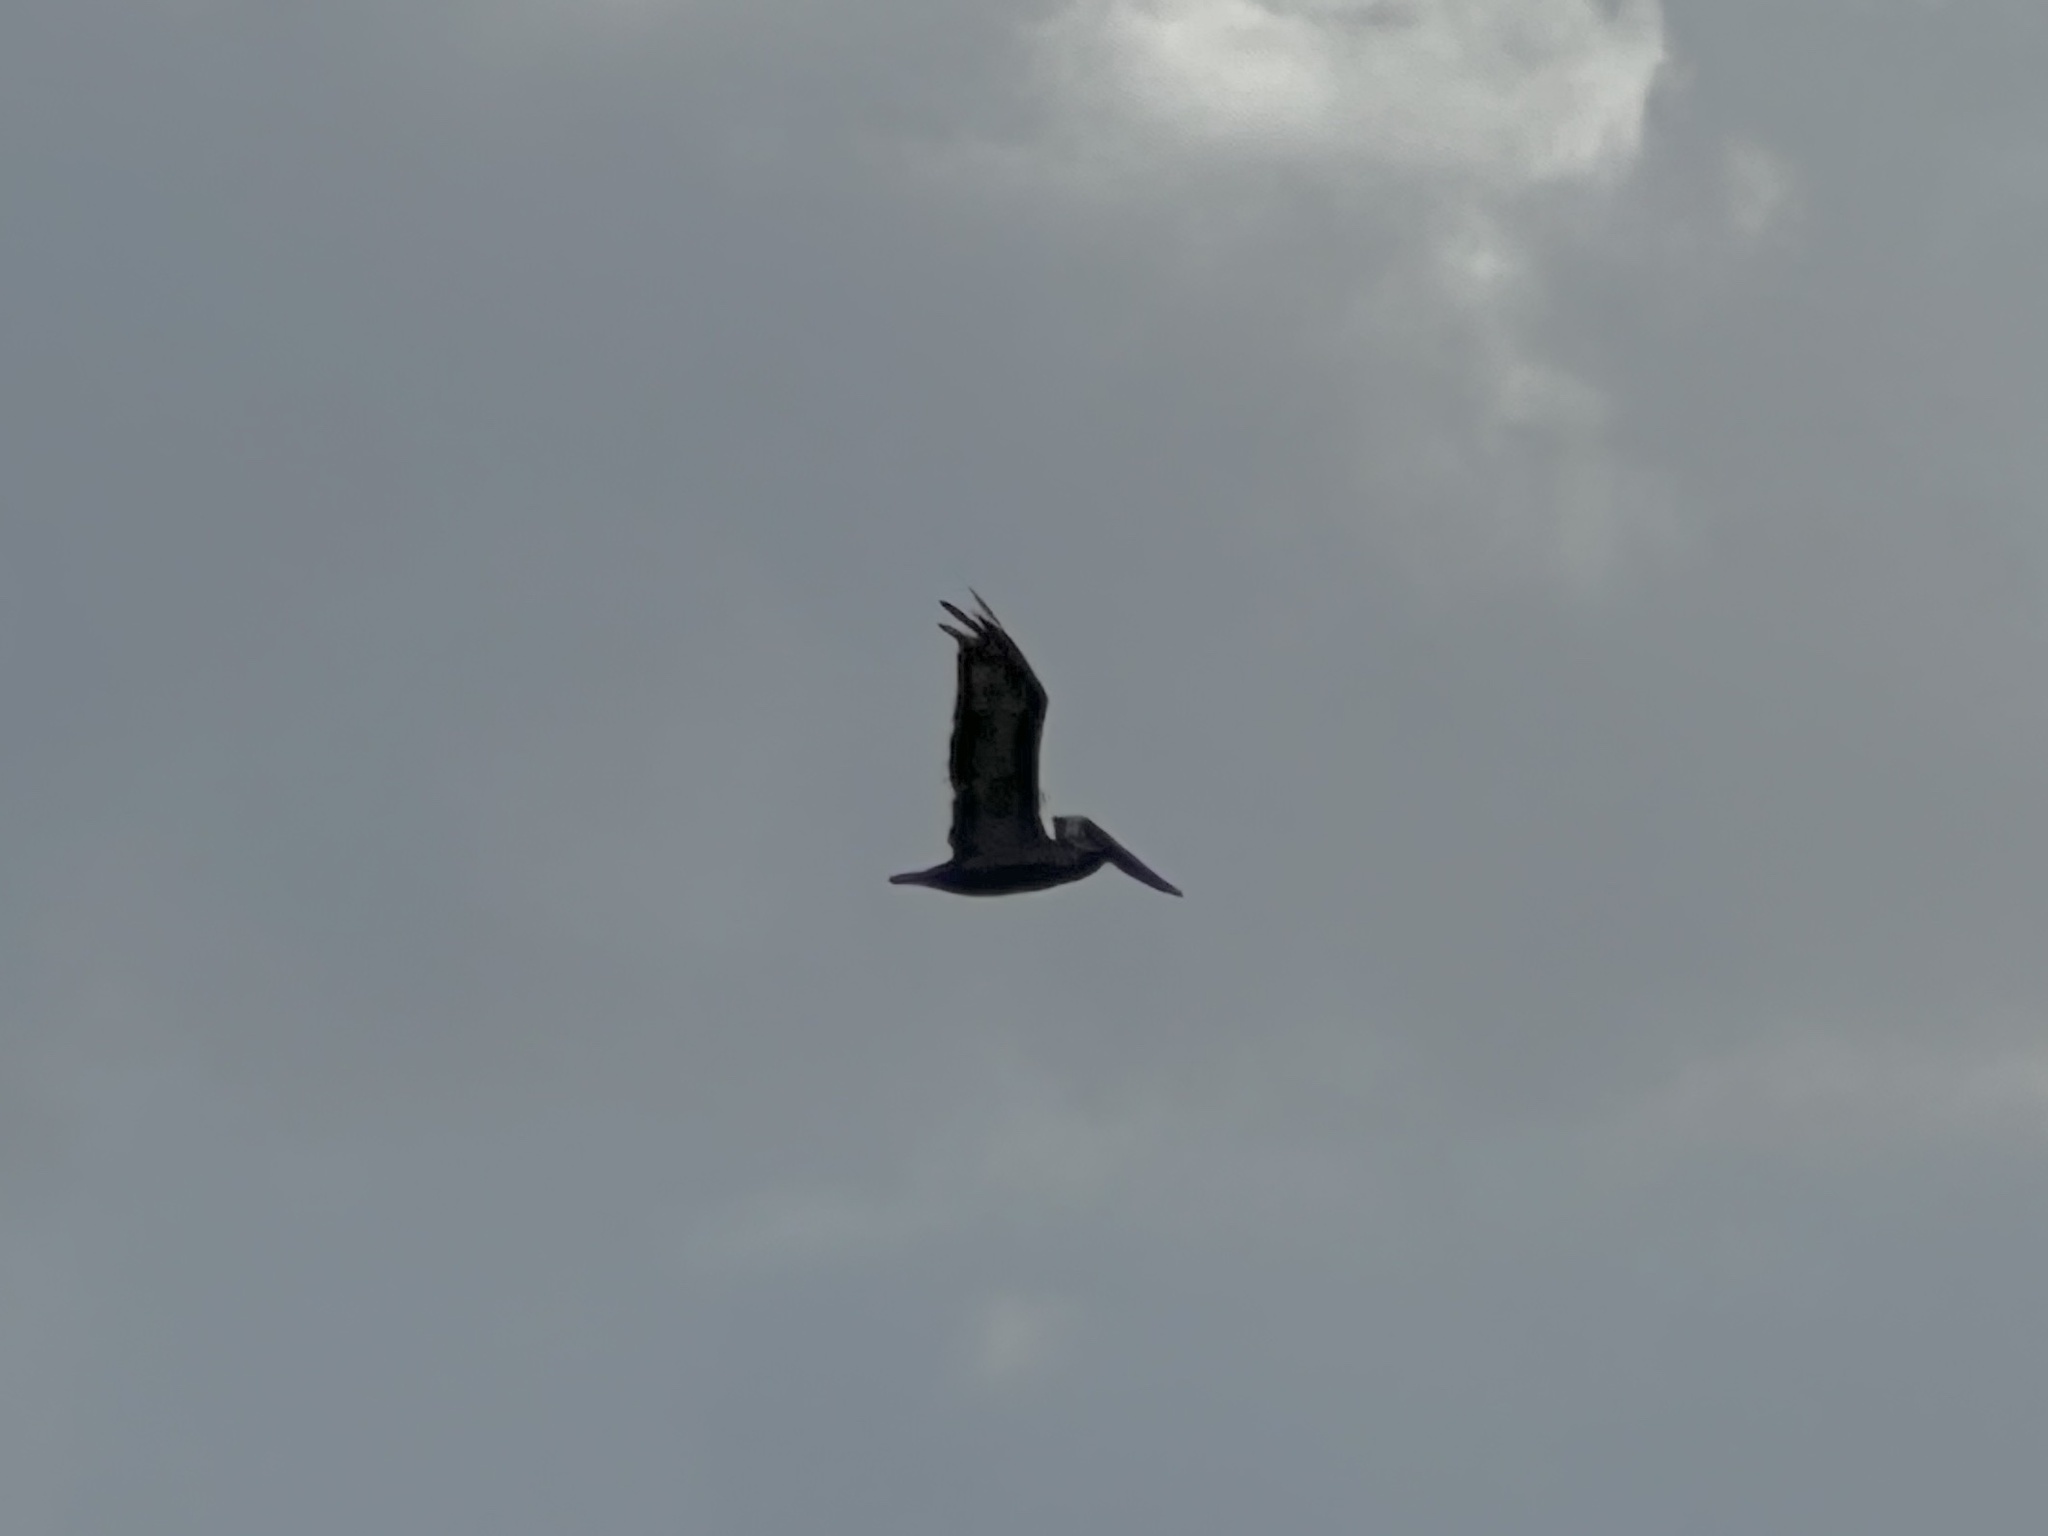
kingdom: Animalia
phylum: Chordata
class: Aves
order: Pelecaniformes
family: Pelecanidae
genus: Pelecanus
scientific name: Pelecanus occidentalis
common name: Brown pelican
